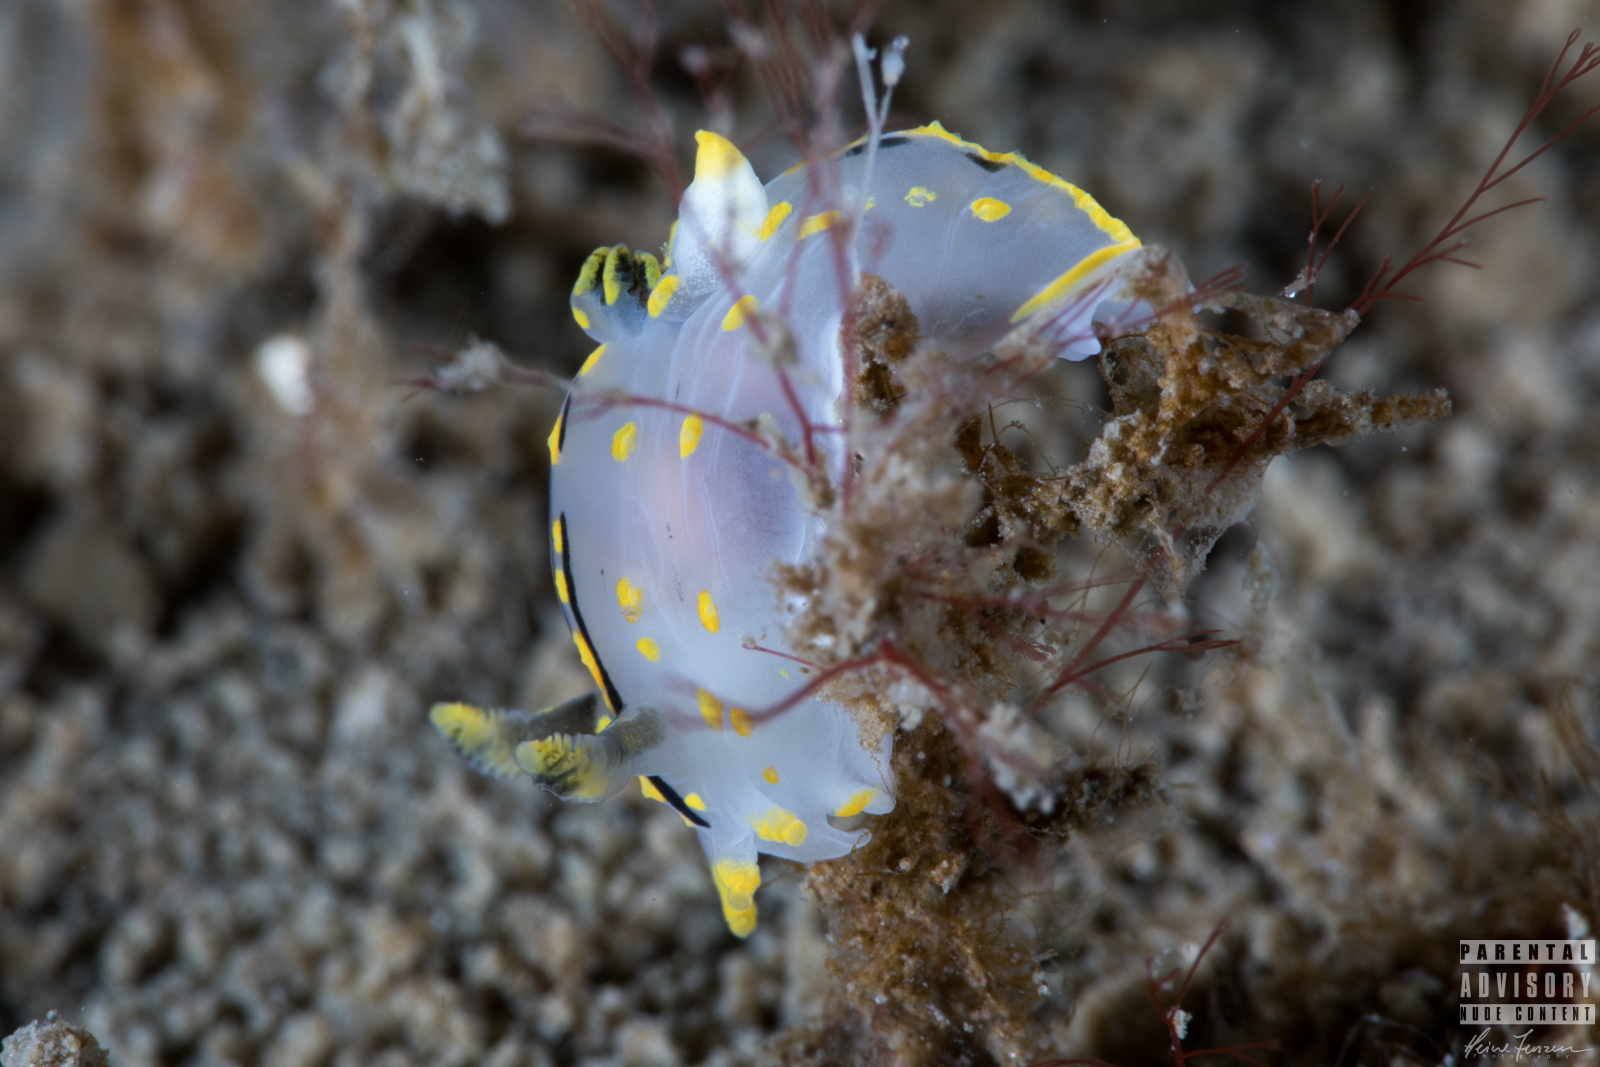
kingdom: Animalia
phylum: Mollusca
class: Gastropoda
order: Nudibranchia
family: Polyceridae
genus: Polycera
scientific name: Polycera quadrilineata
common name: Four-striped polycera
